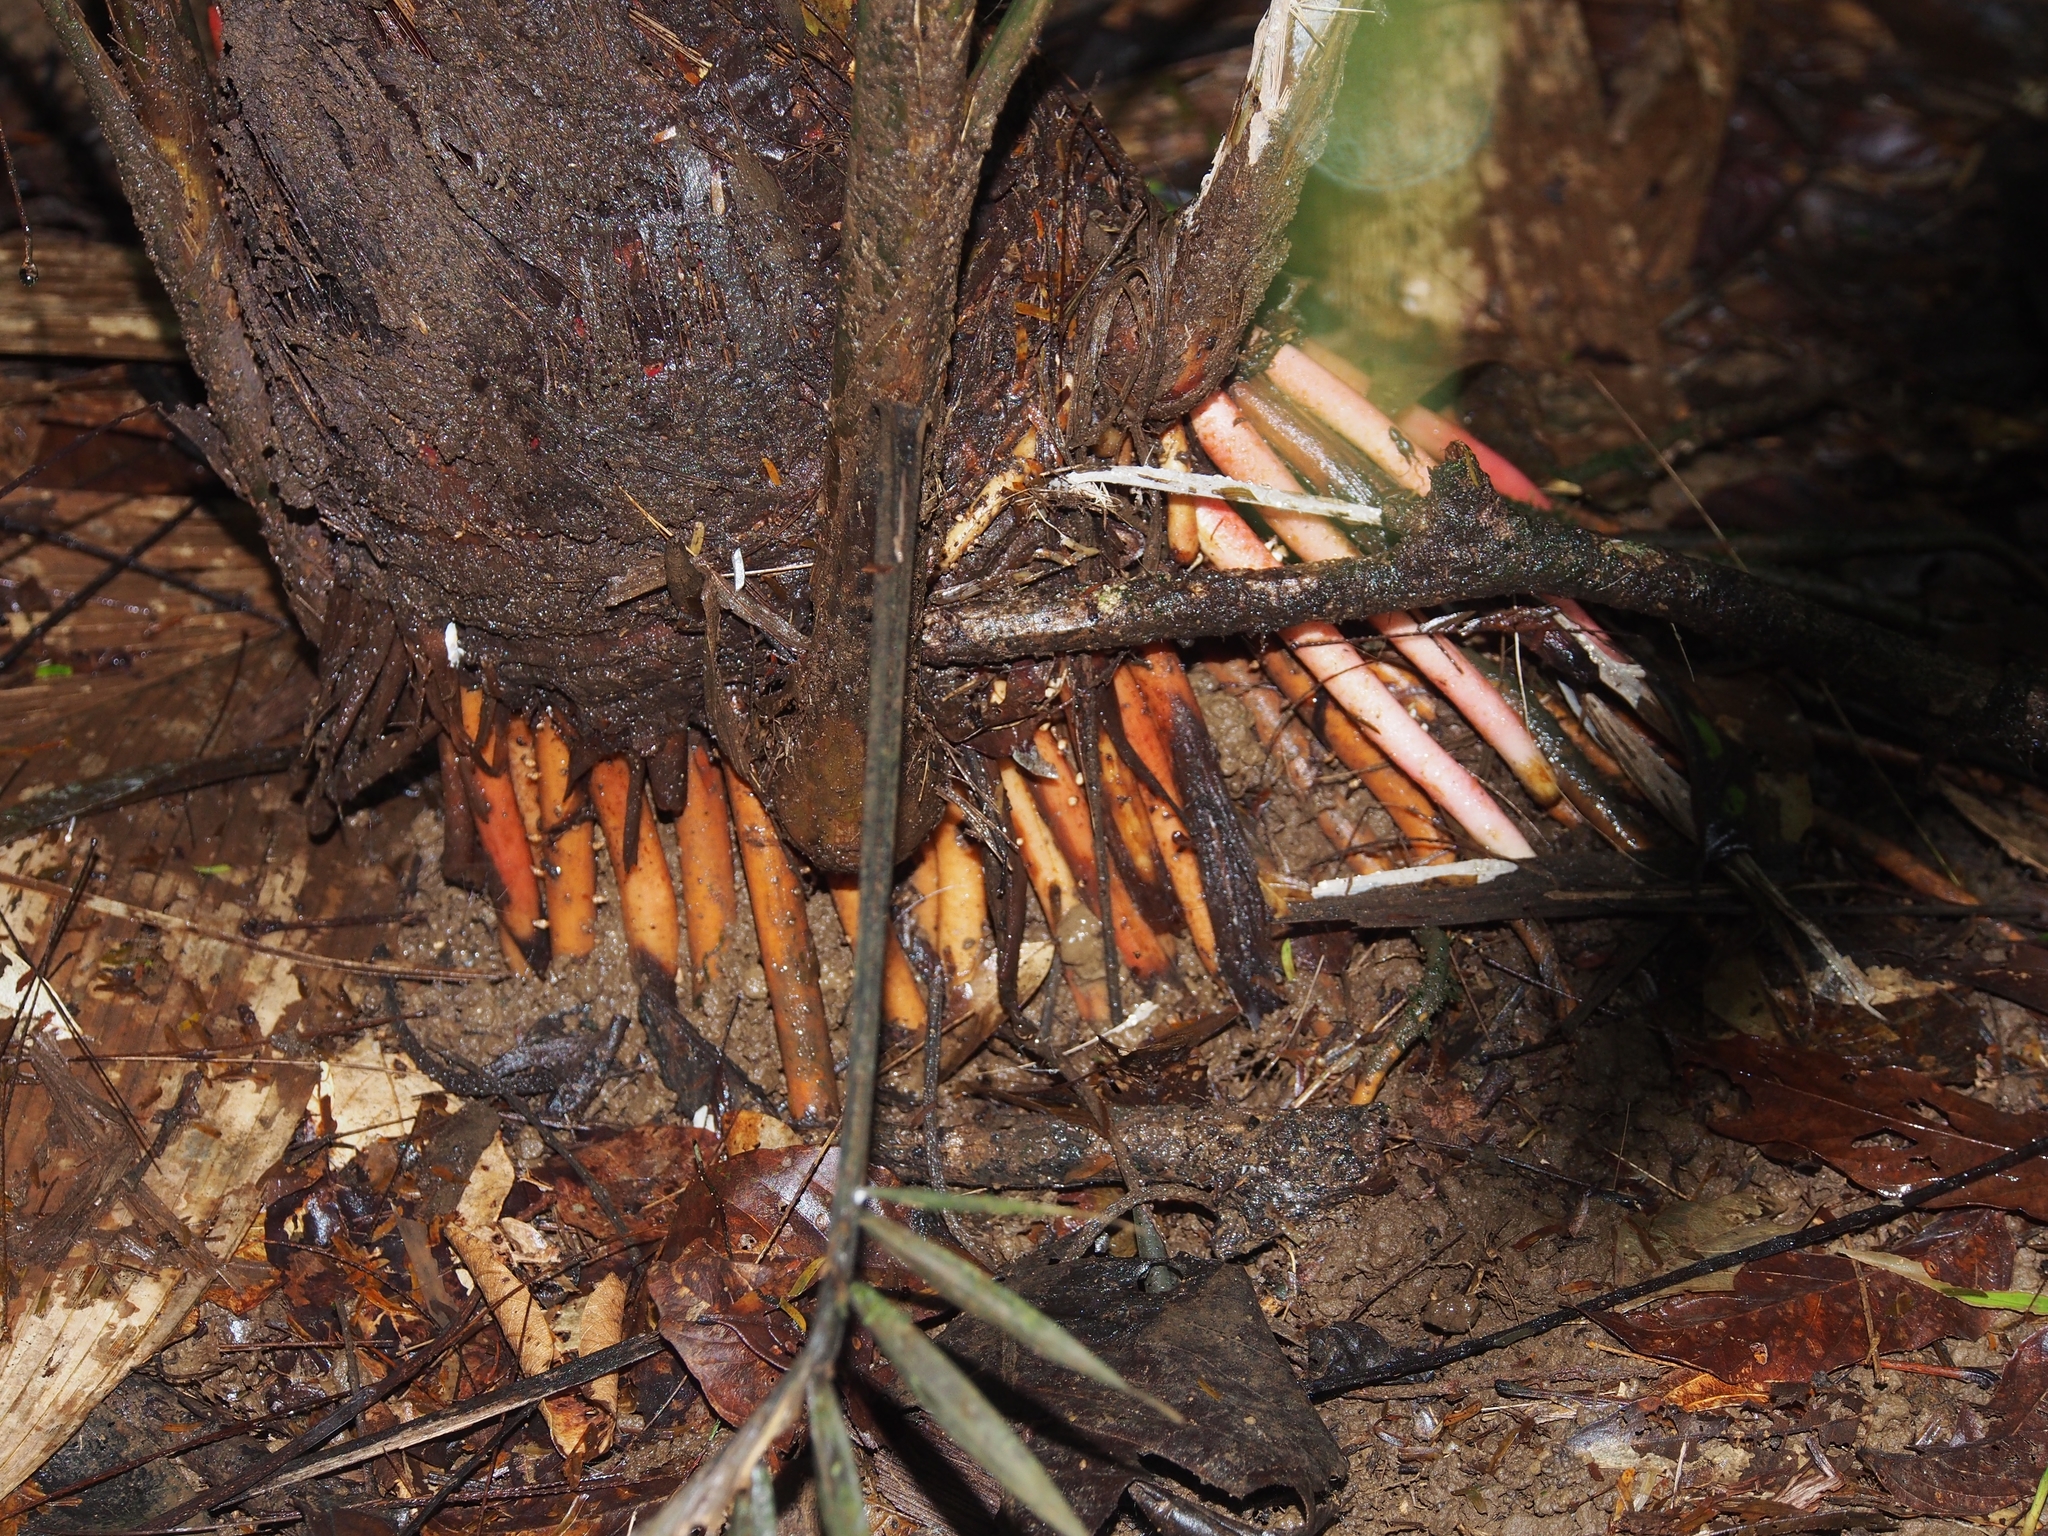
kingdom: Plantae
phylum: Tracheophyta
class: Liliopsida
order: Arecales
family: Arecaceae
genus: Prestoea
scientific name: Prestoea decurrens
